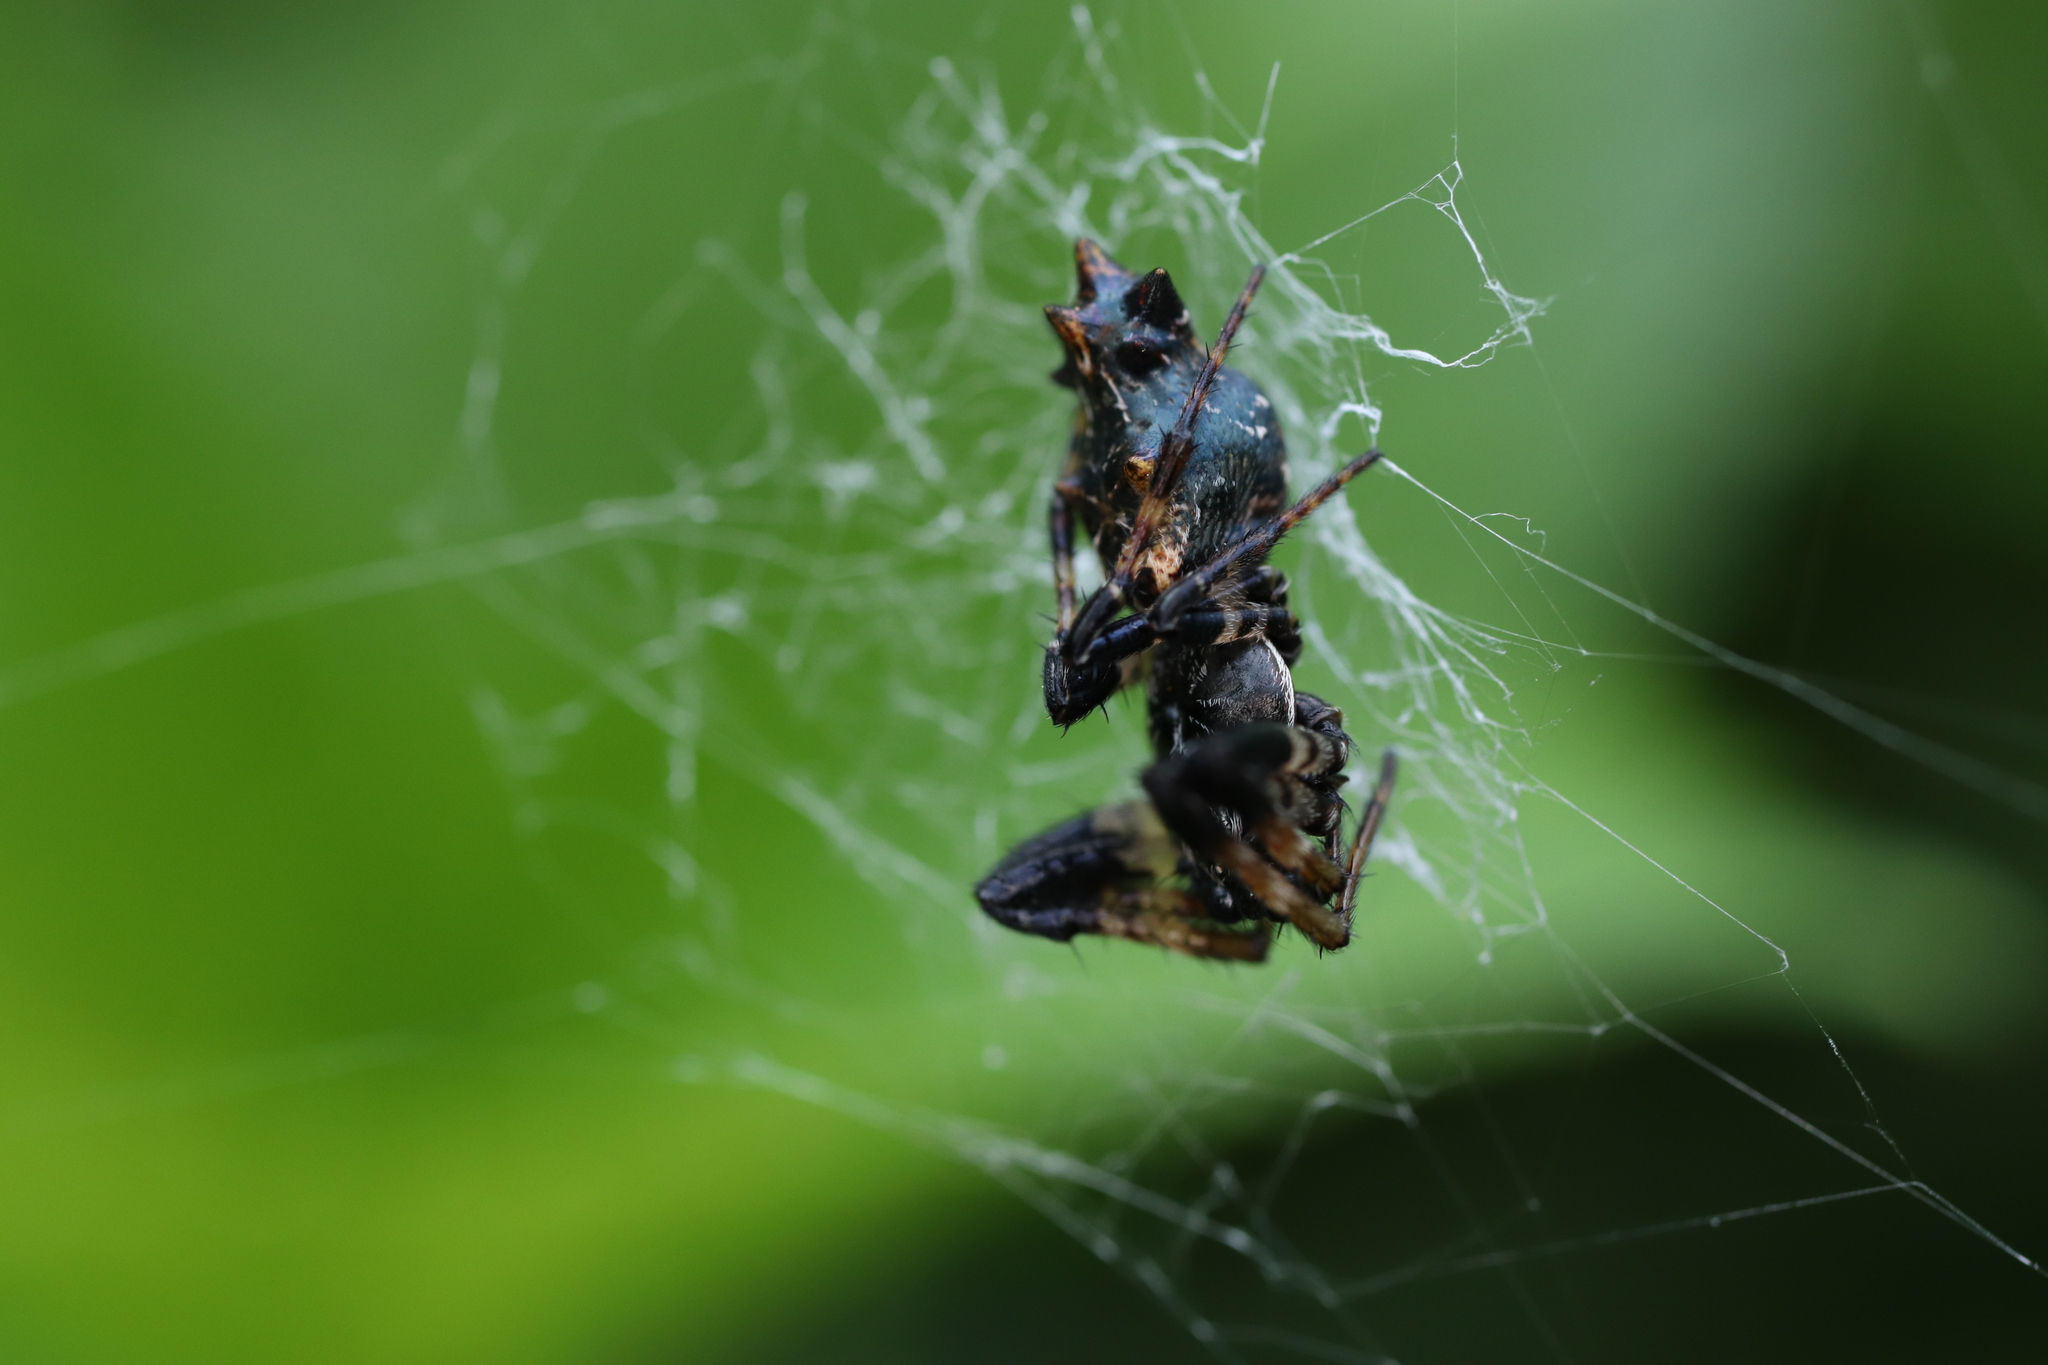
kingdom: Animalia
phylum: Arthropoda
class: Arachnida
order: Araneae
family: Araneidae
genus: Cyclosa
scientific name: Cyclosa octotuberculata
